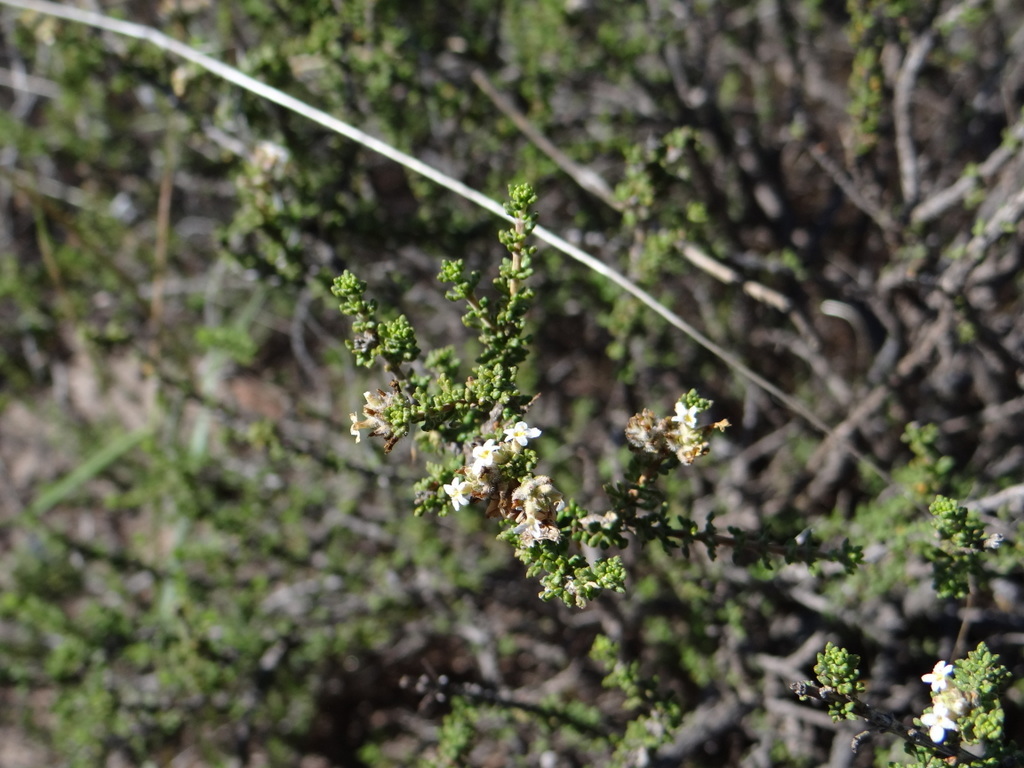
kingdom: Plantae
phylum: Tracheophyta
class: Magnoliopsida
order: Lamiales
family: Verbenaceae
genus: Acantholippia
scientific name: Acantholippia seriphioides
